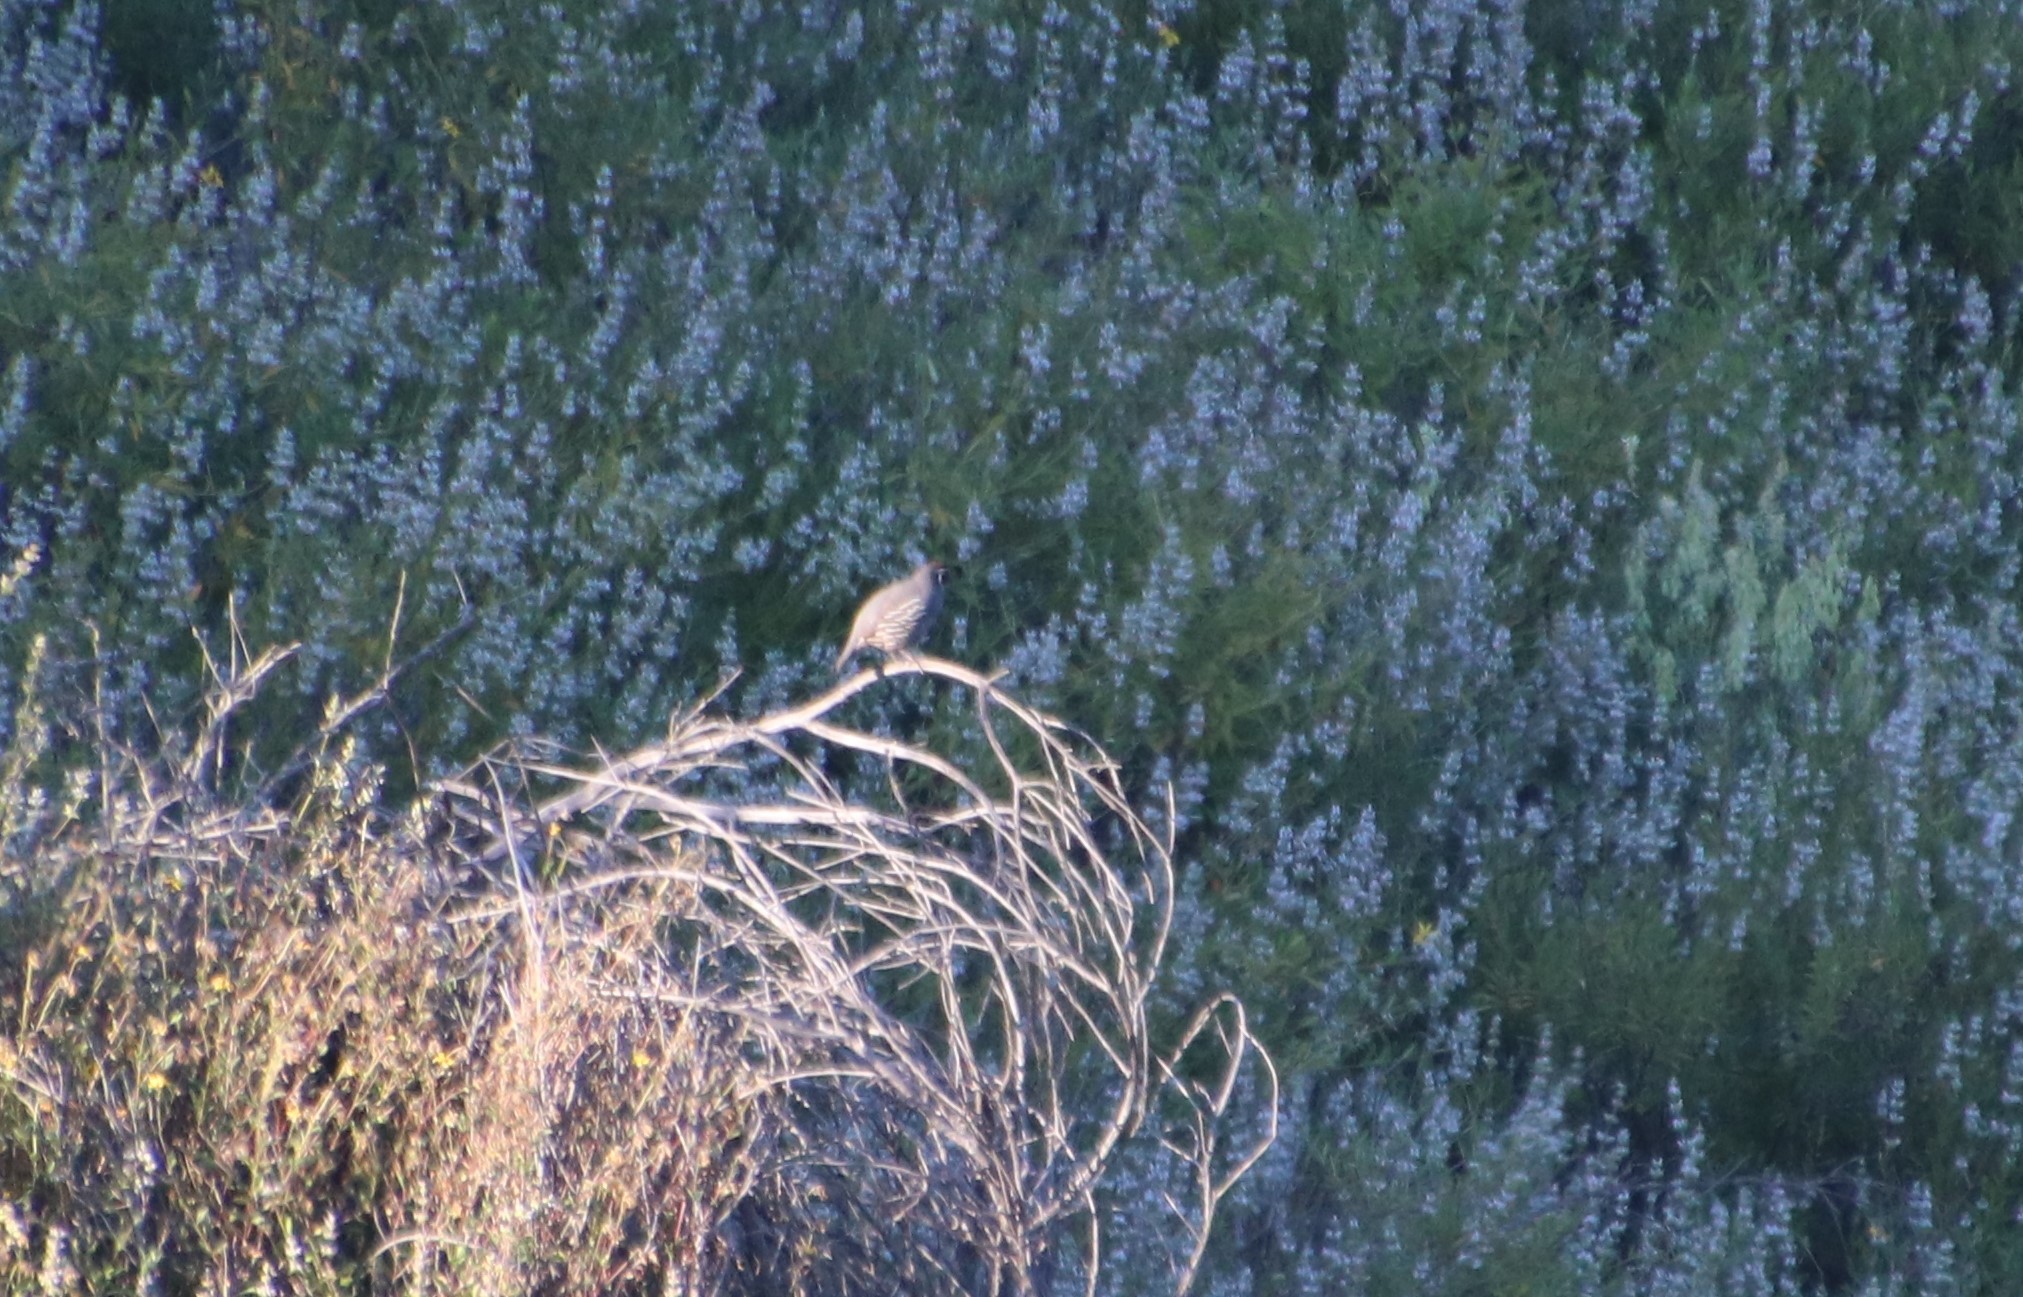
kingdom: Animalia
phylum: Chordata
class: Aves
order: Galliformes
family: Odontophoridae
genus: Callipepla
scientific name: Callipepla californica
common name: California quail
